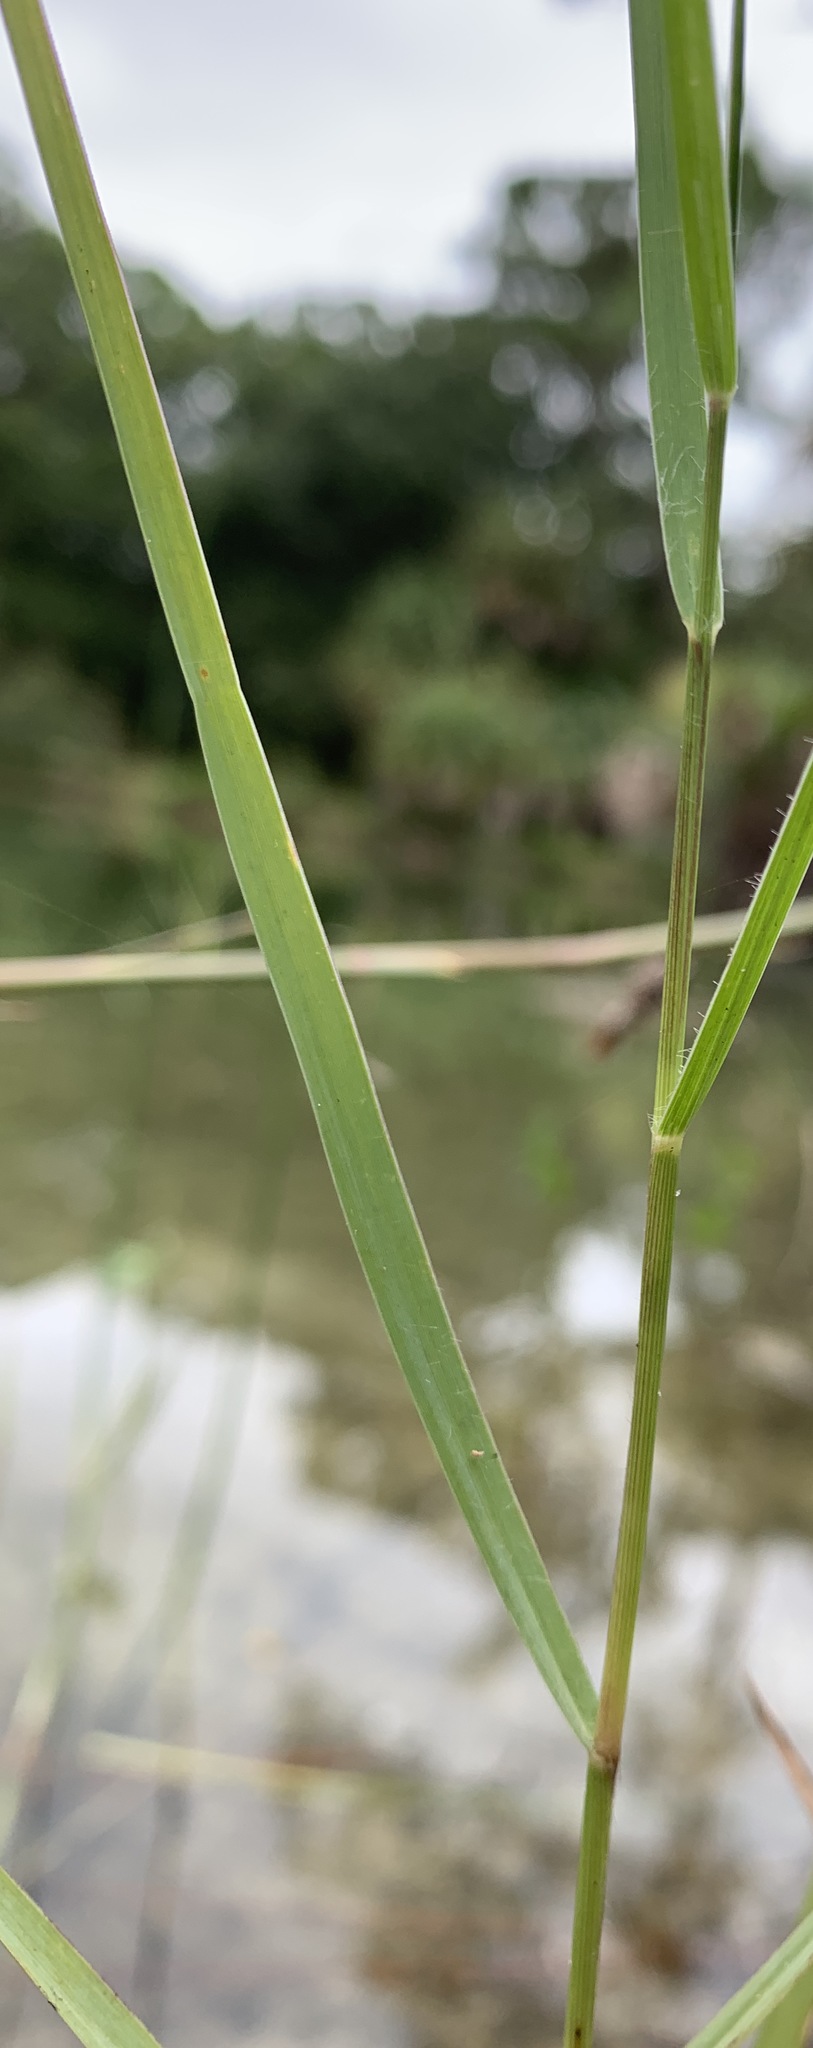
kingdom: Plantae
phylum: Tracheophyta
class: Liliopsida
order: Poales
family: Poaceae
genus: Panicum
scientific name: Panicum repens
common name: Torpedo grass
